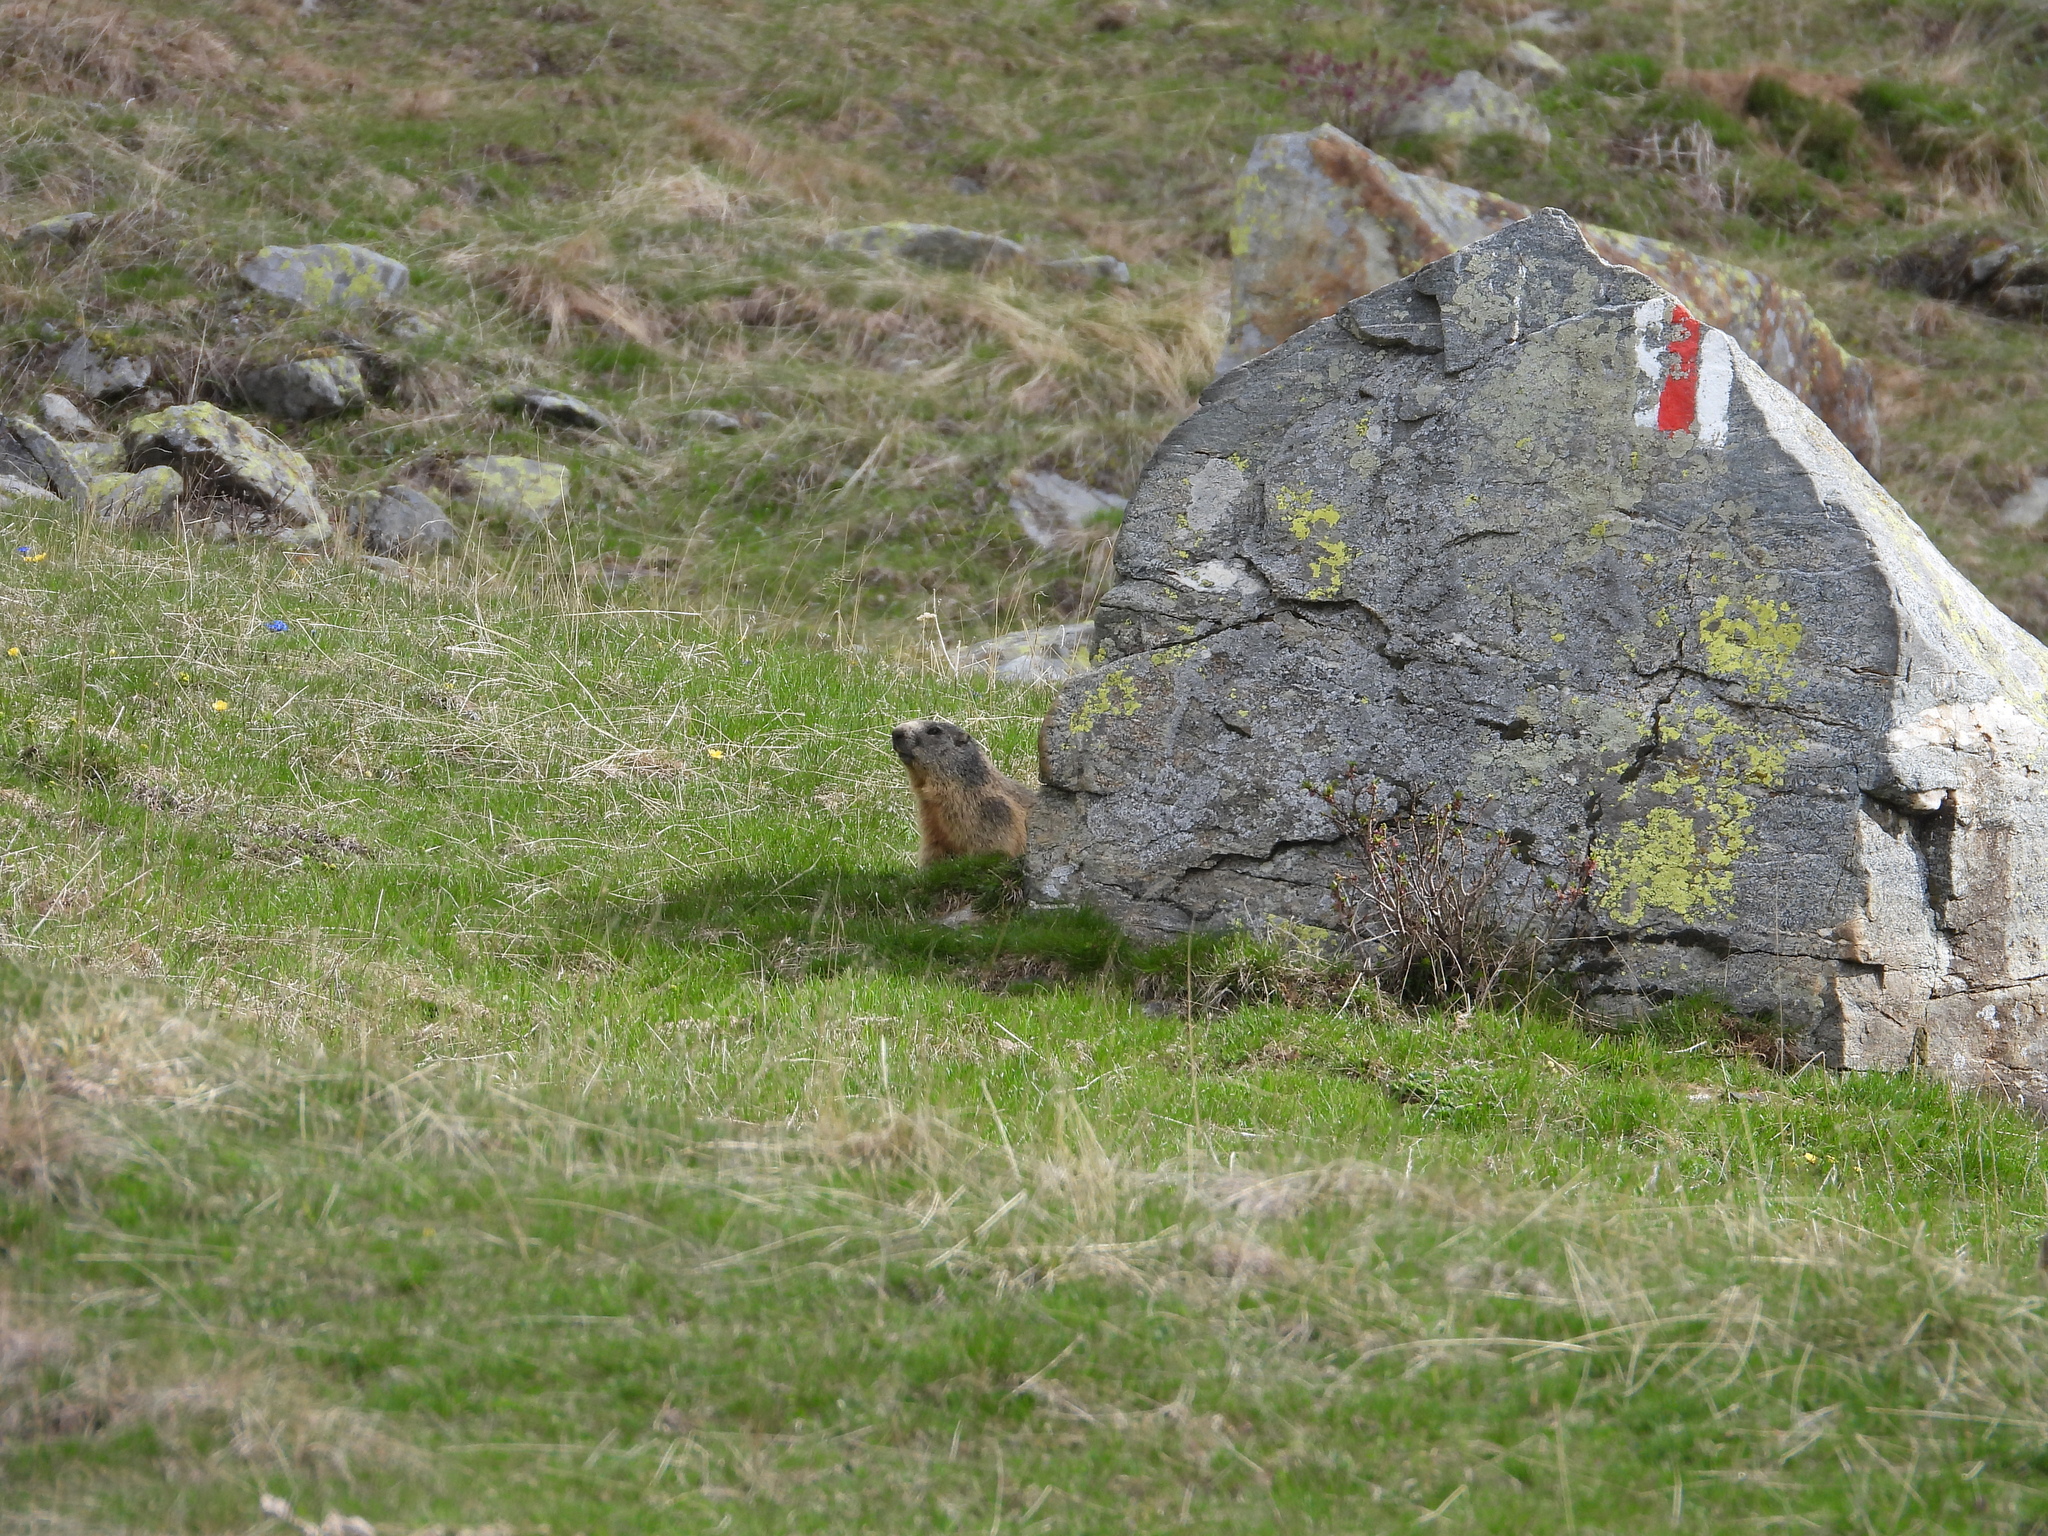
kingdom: Animalia
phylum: Chordata
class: Mammalia
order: Rodentia
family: Sciuridae
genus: Marmota
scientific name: Marmota marmota
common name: Alpine marmot
